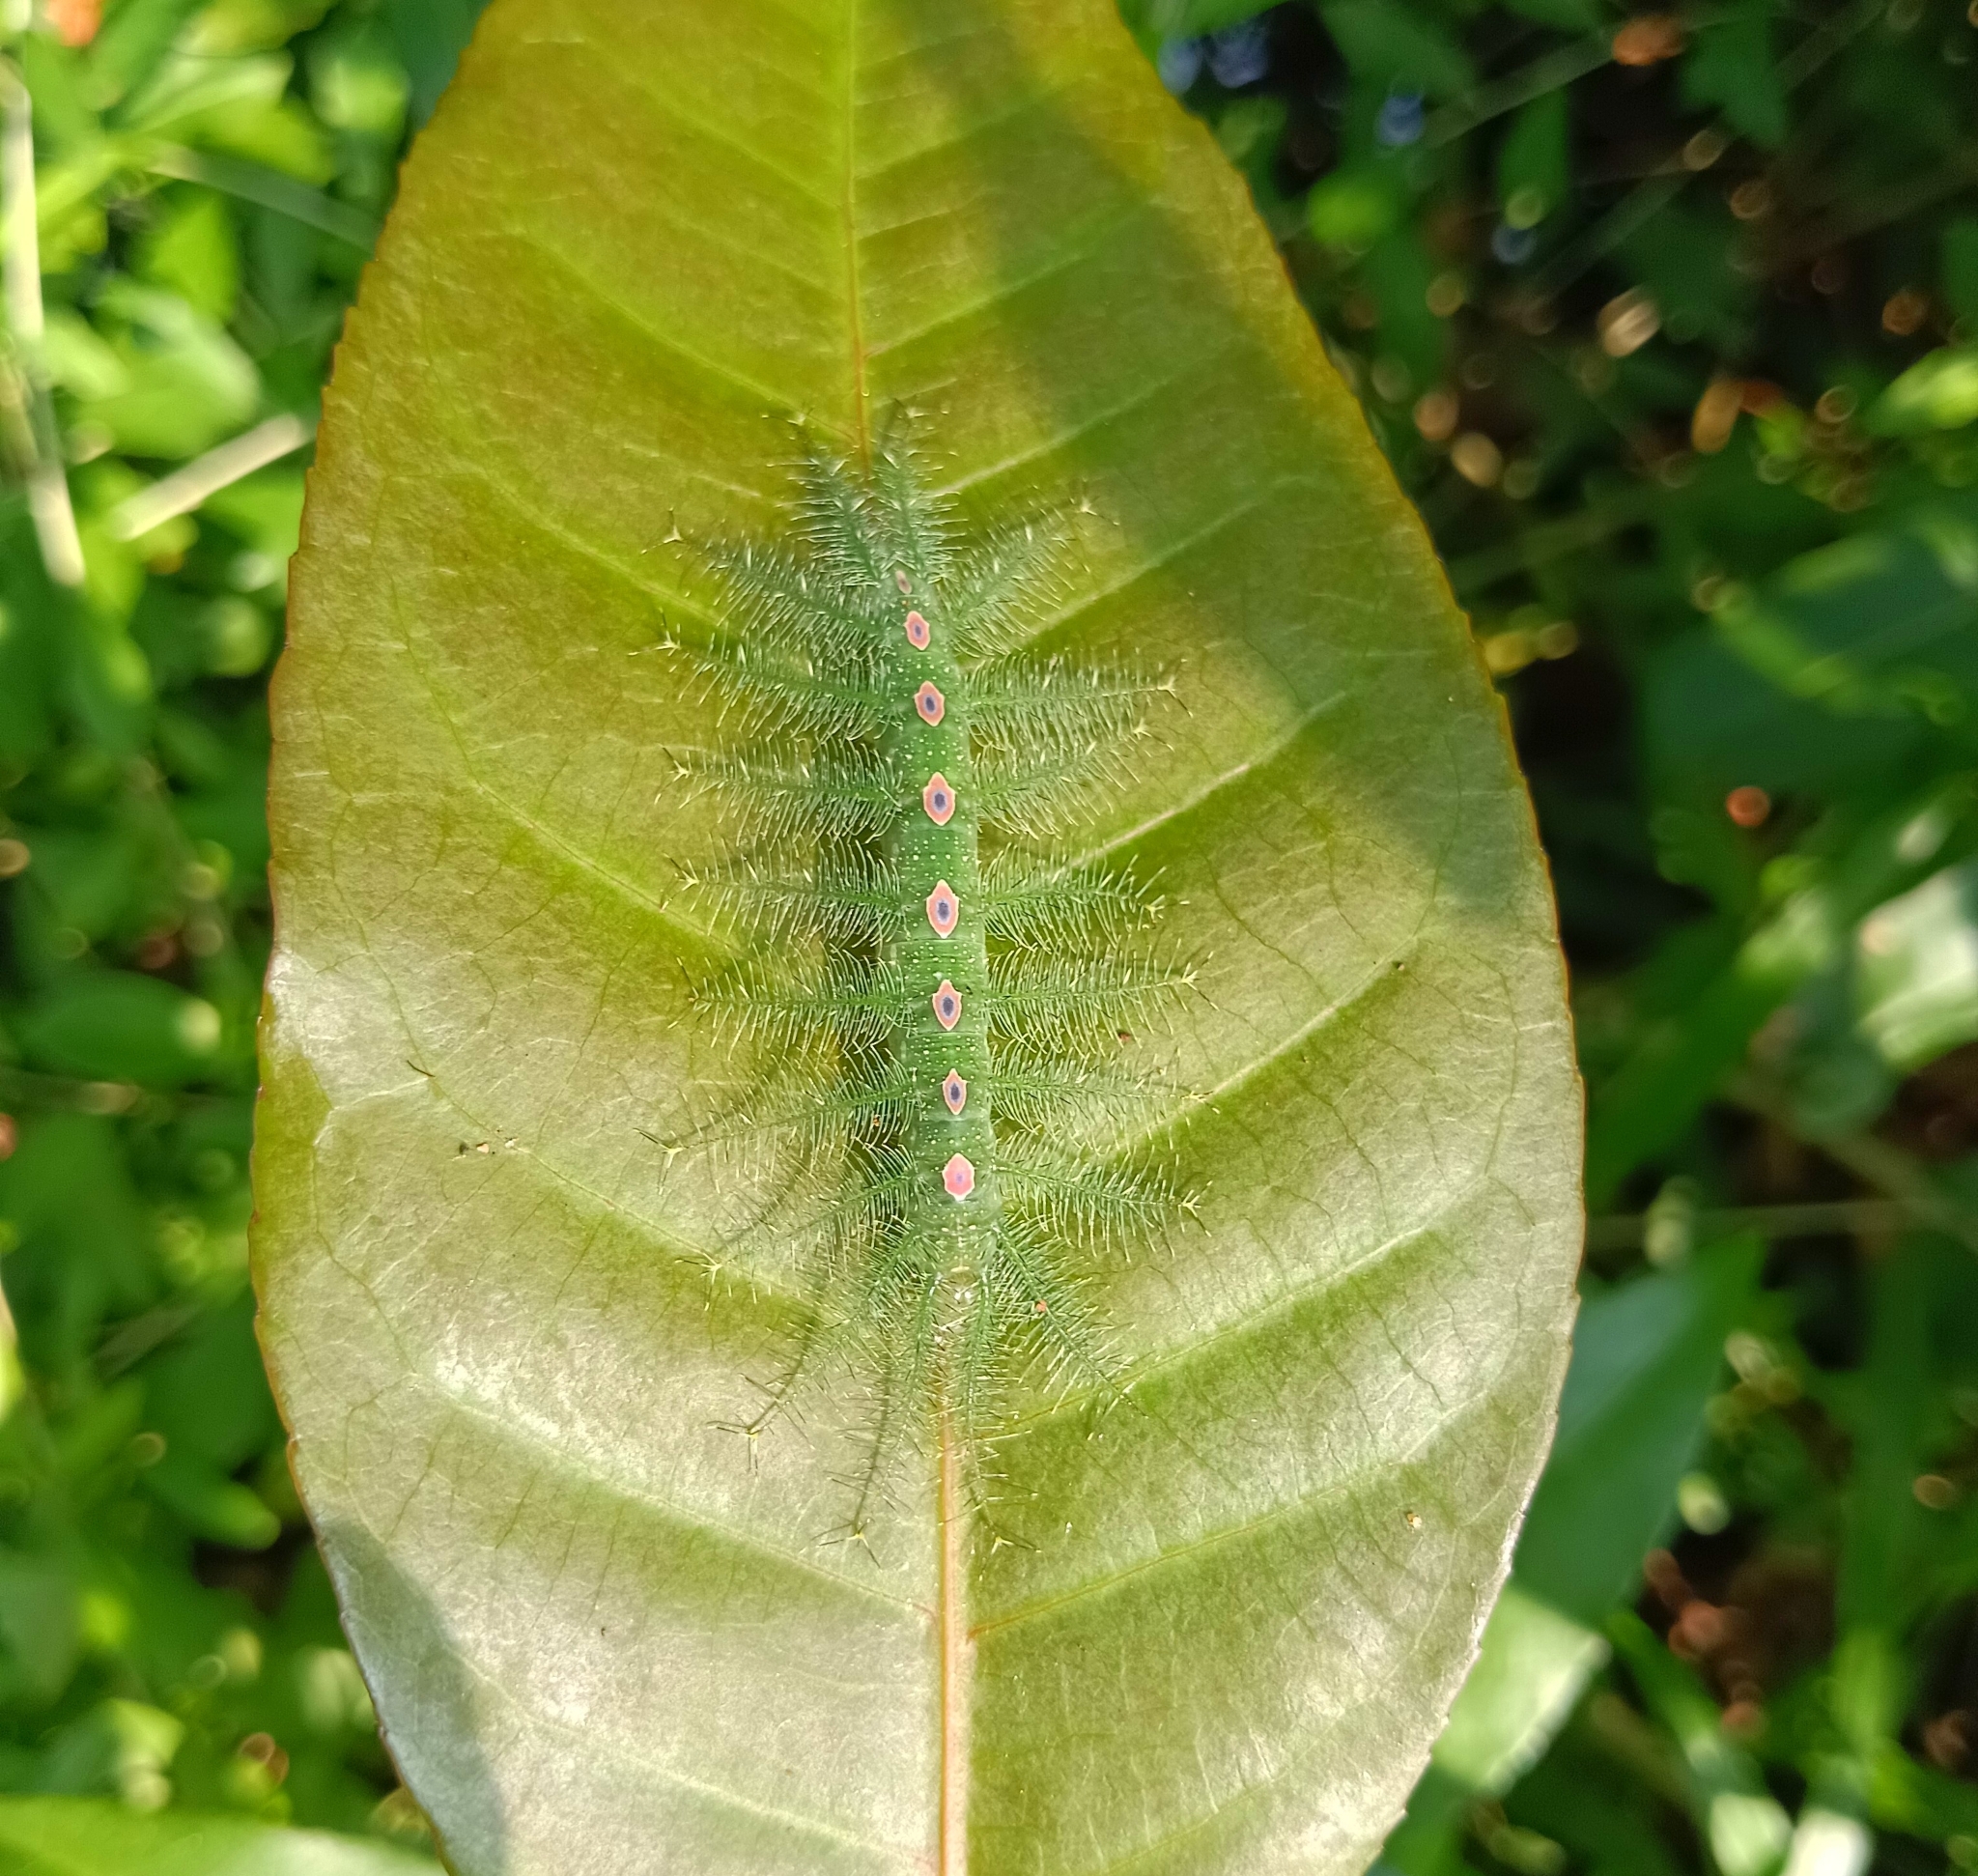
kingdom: Animalia
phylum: Arthropoda
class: Insecta
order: Lepidoptera
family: Nymphalidae
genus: Tanaecia
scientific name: Tanaecia lepidea
